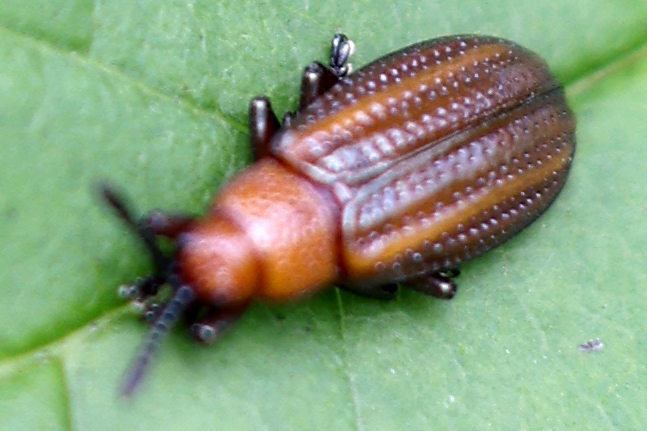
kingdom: Animalia
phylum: Arthropoda
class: Insecta
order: Coleoptera
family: Chrysomelidae
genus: Microrhopala
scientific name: Microrhopala vittata
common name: Goldenrod leaf miner beetle
